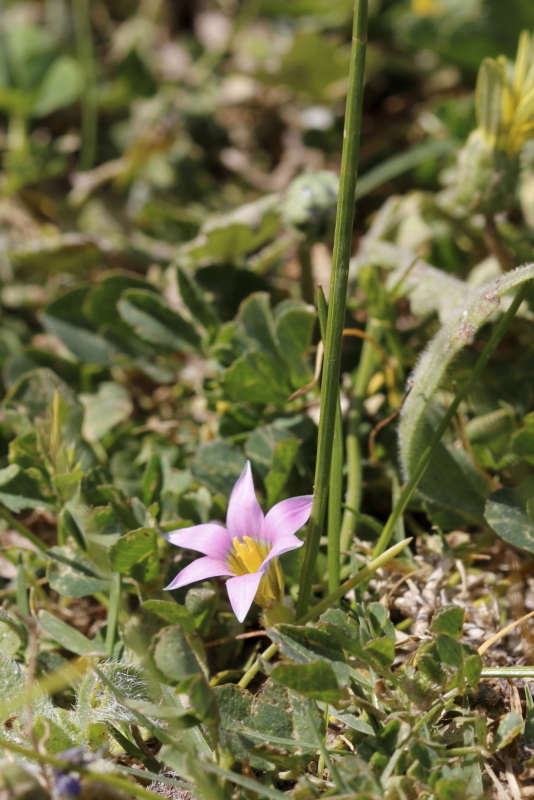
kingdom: Plantae
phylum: Tracheophyta
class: Liliopsida
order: Asparagales
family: Iridaceae
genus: Romulea
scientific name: Romulea rosea
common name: Oniongrass
